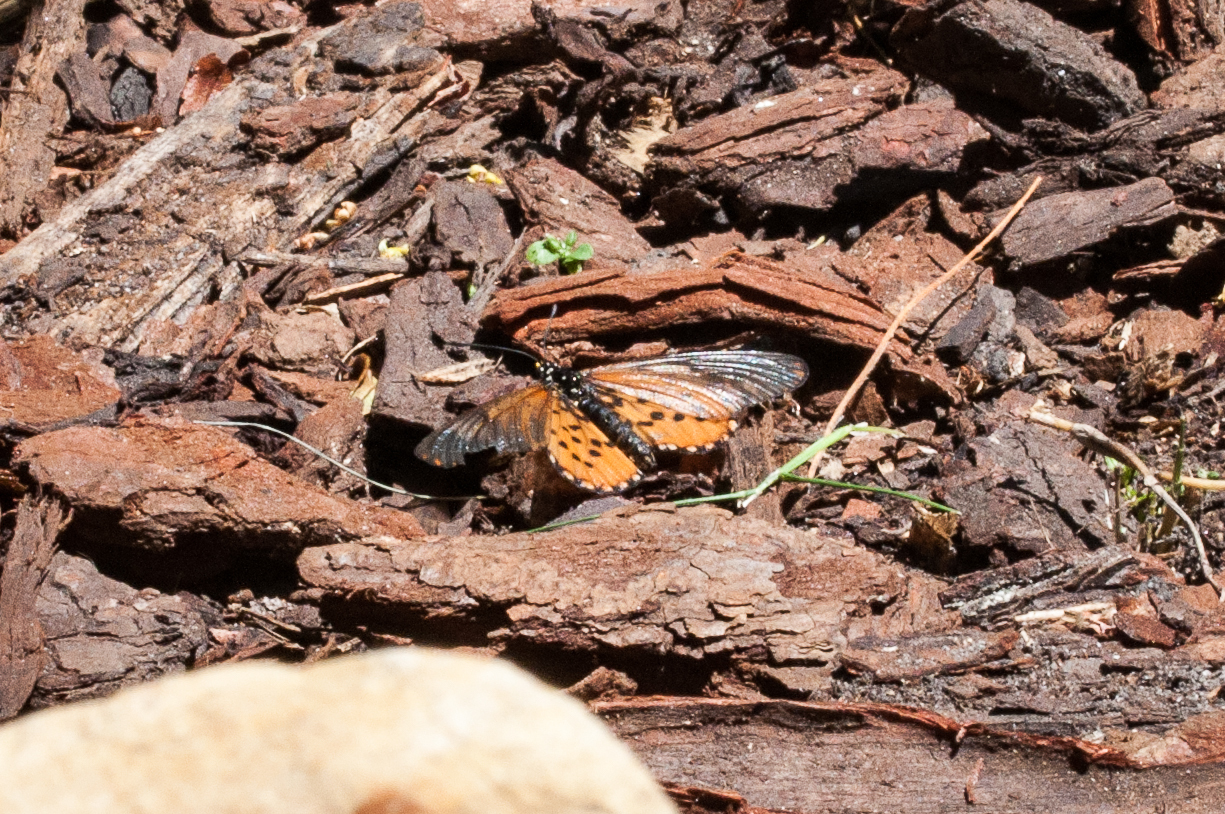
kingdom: Animalia
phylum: Arthropoda
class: Insecta
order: Lepidoptera
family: Nymphalidae
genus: Acraea
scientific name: Acraea horta
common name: Garden acraea
